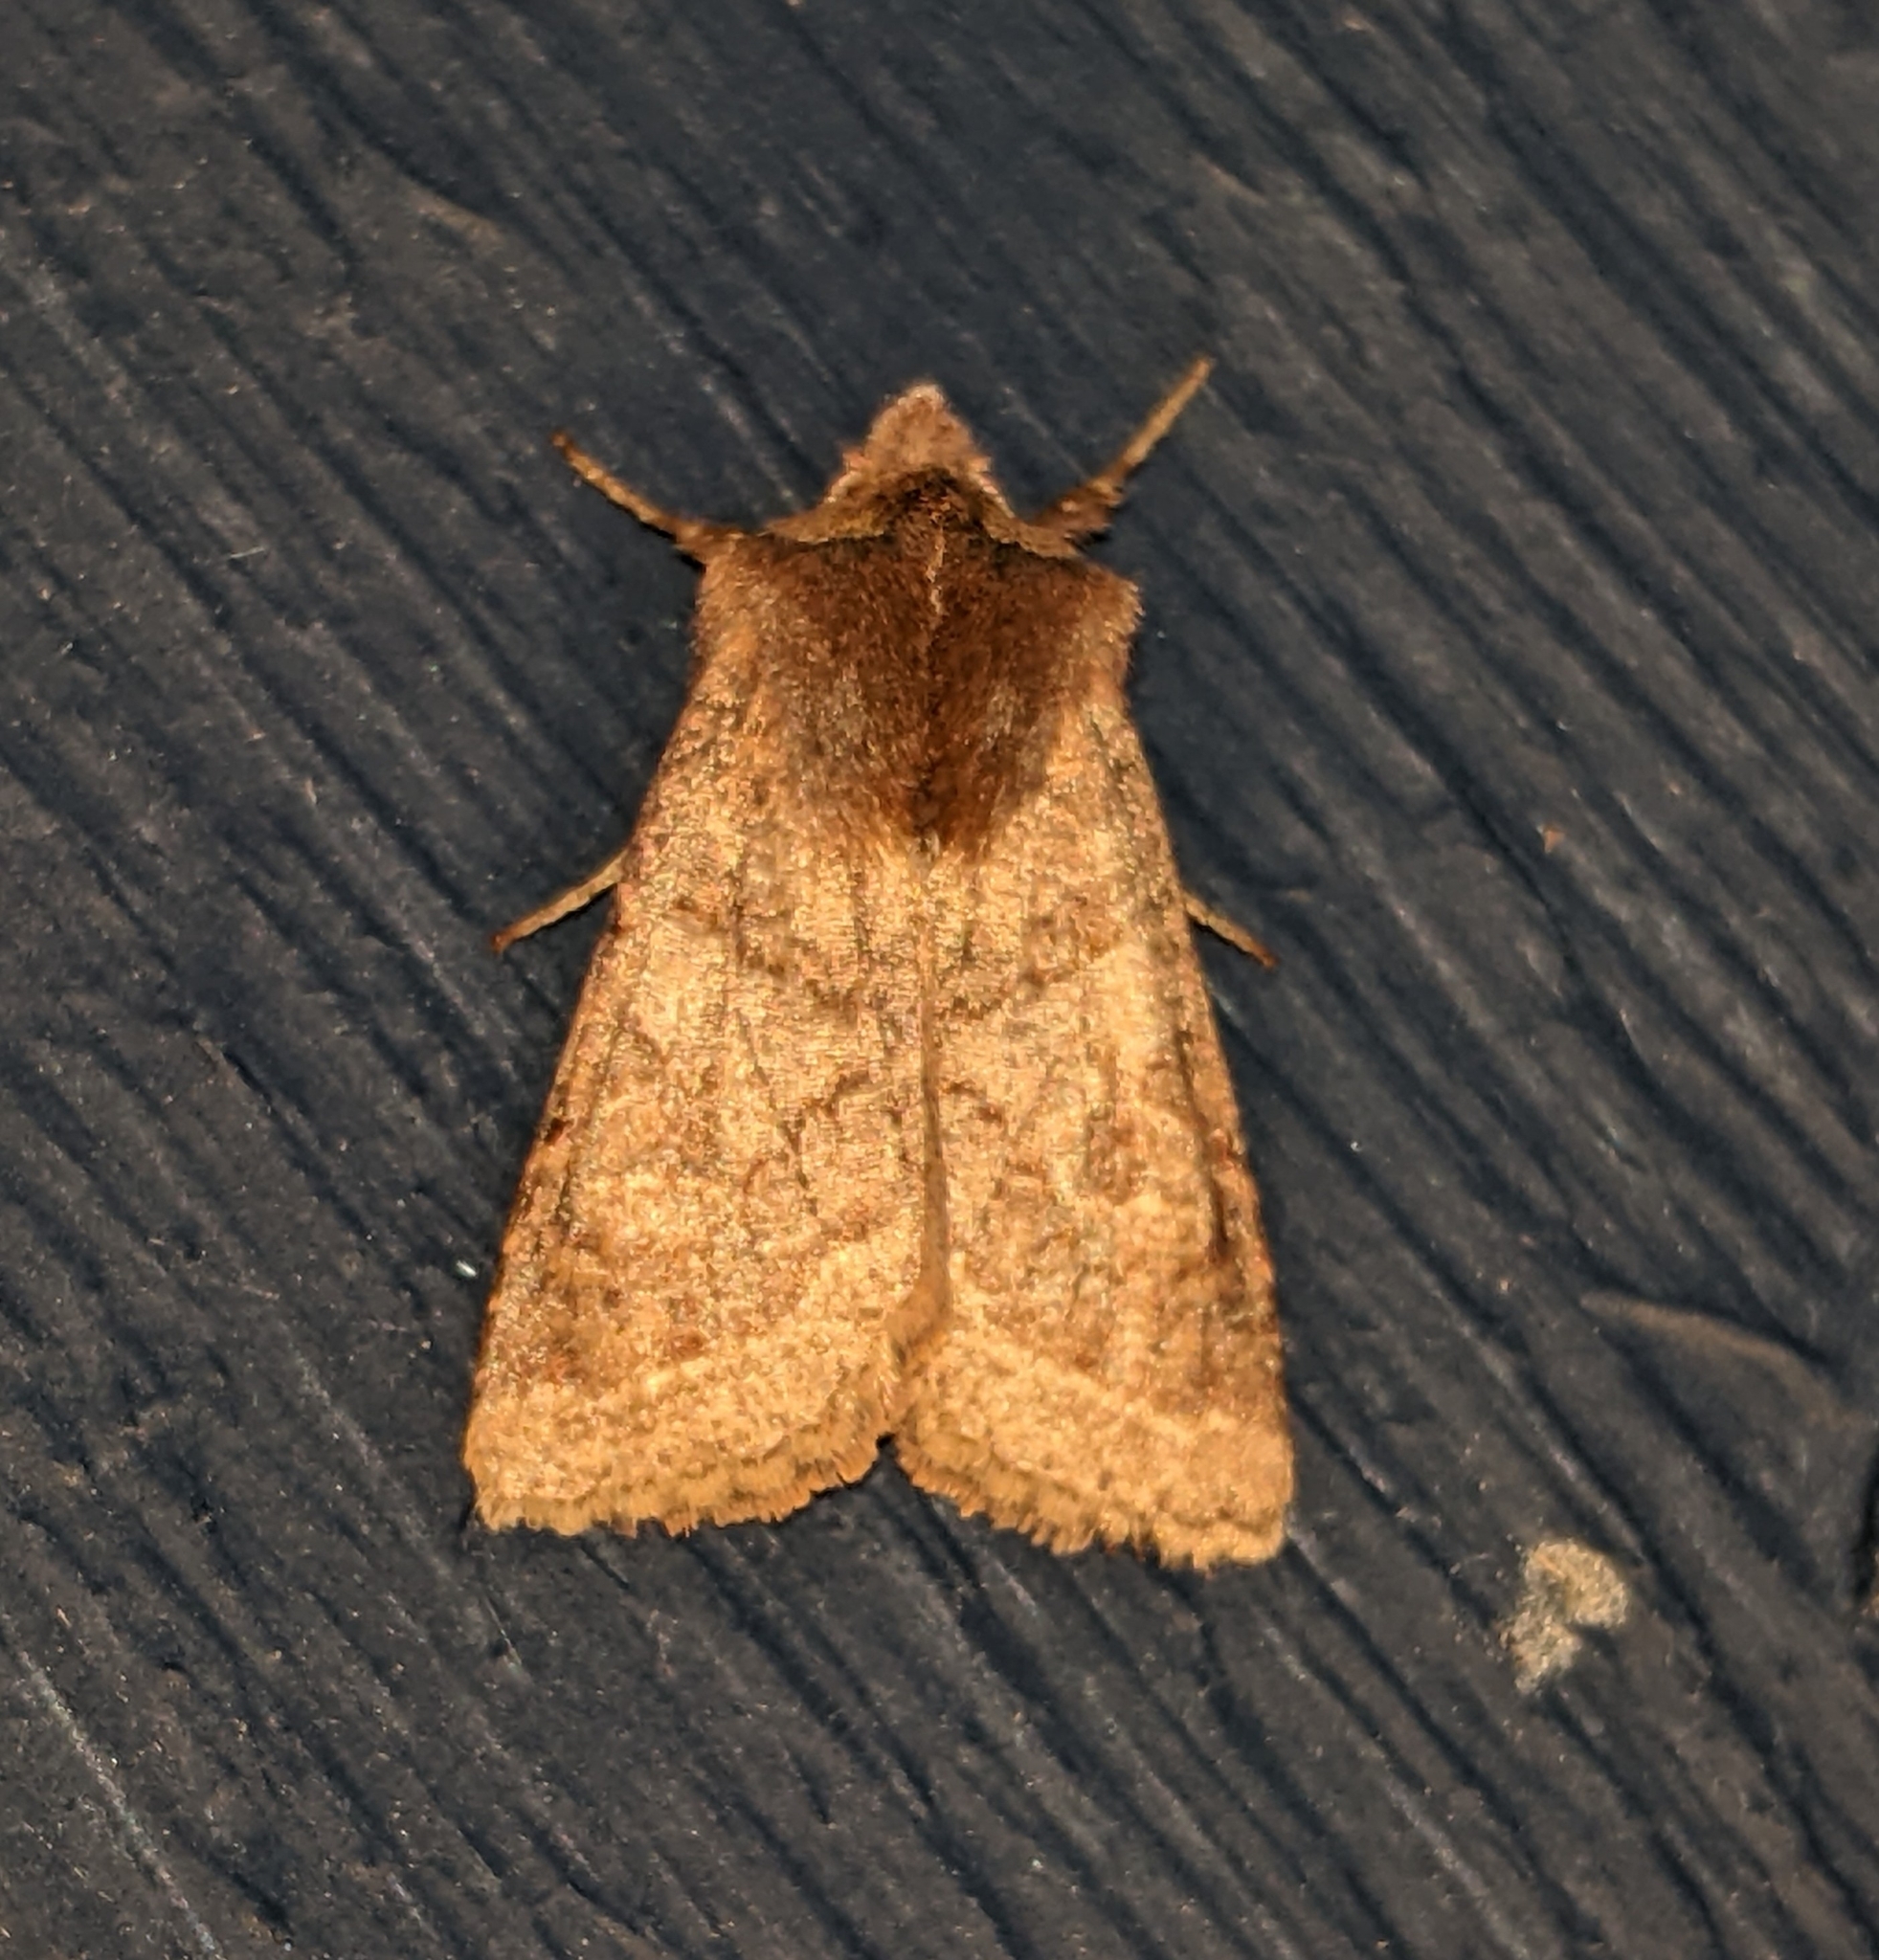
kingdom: Animalia
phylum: Arthropoda
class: Insecta
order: Lepidoptera
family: Noctuidae
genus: Orthosia
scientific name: Orthosia praeses
